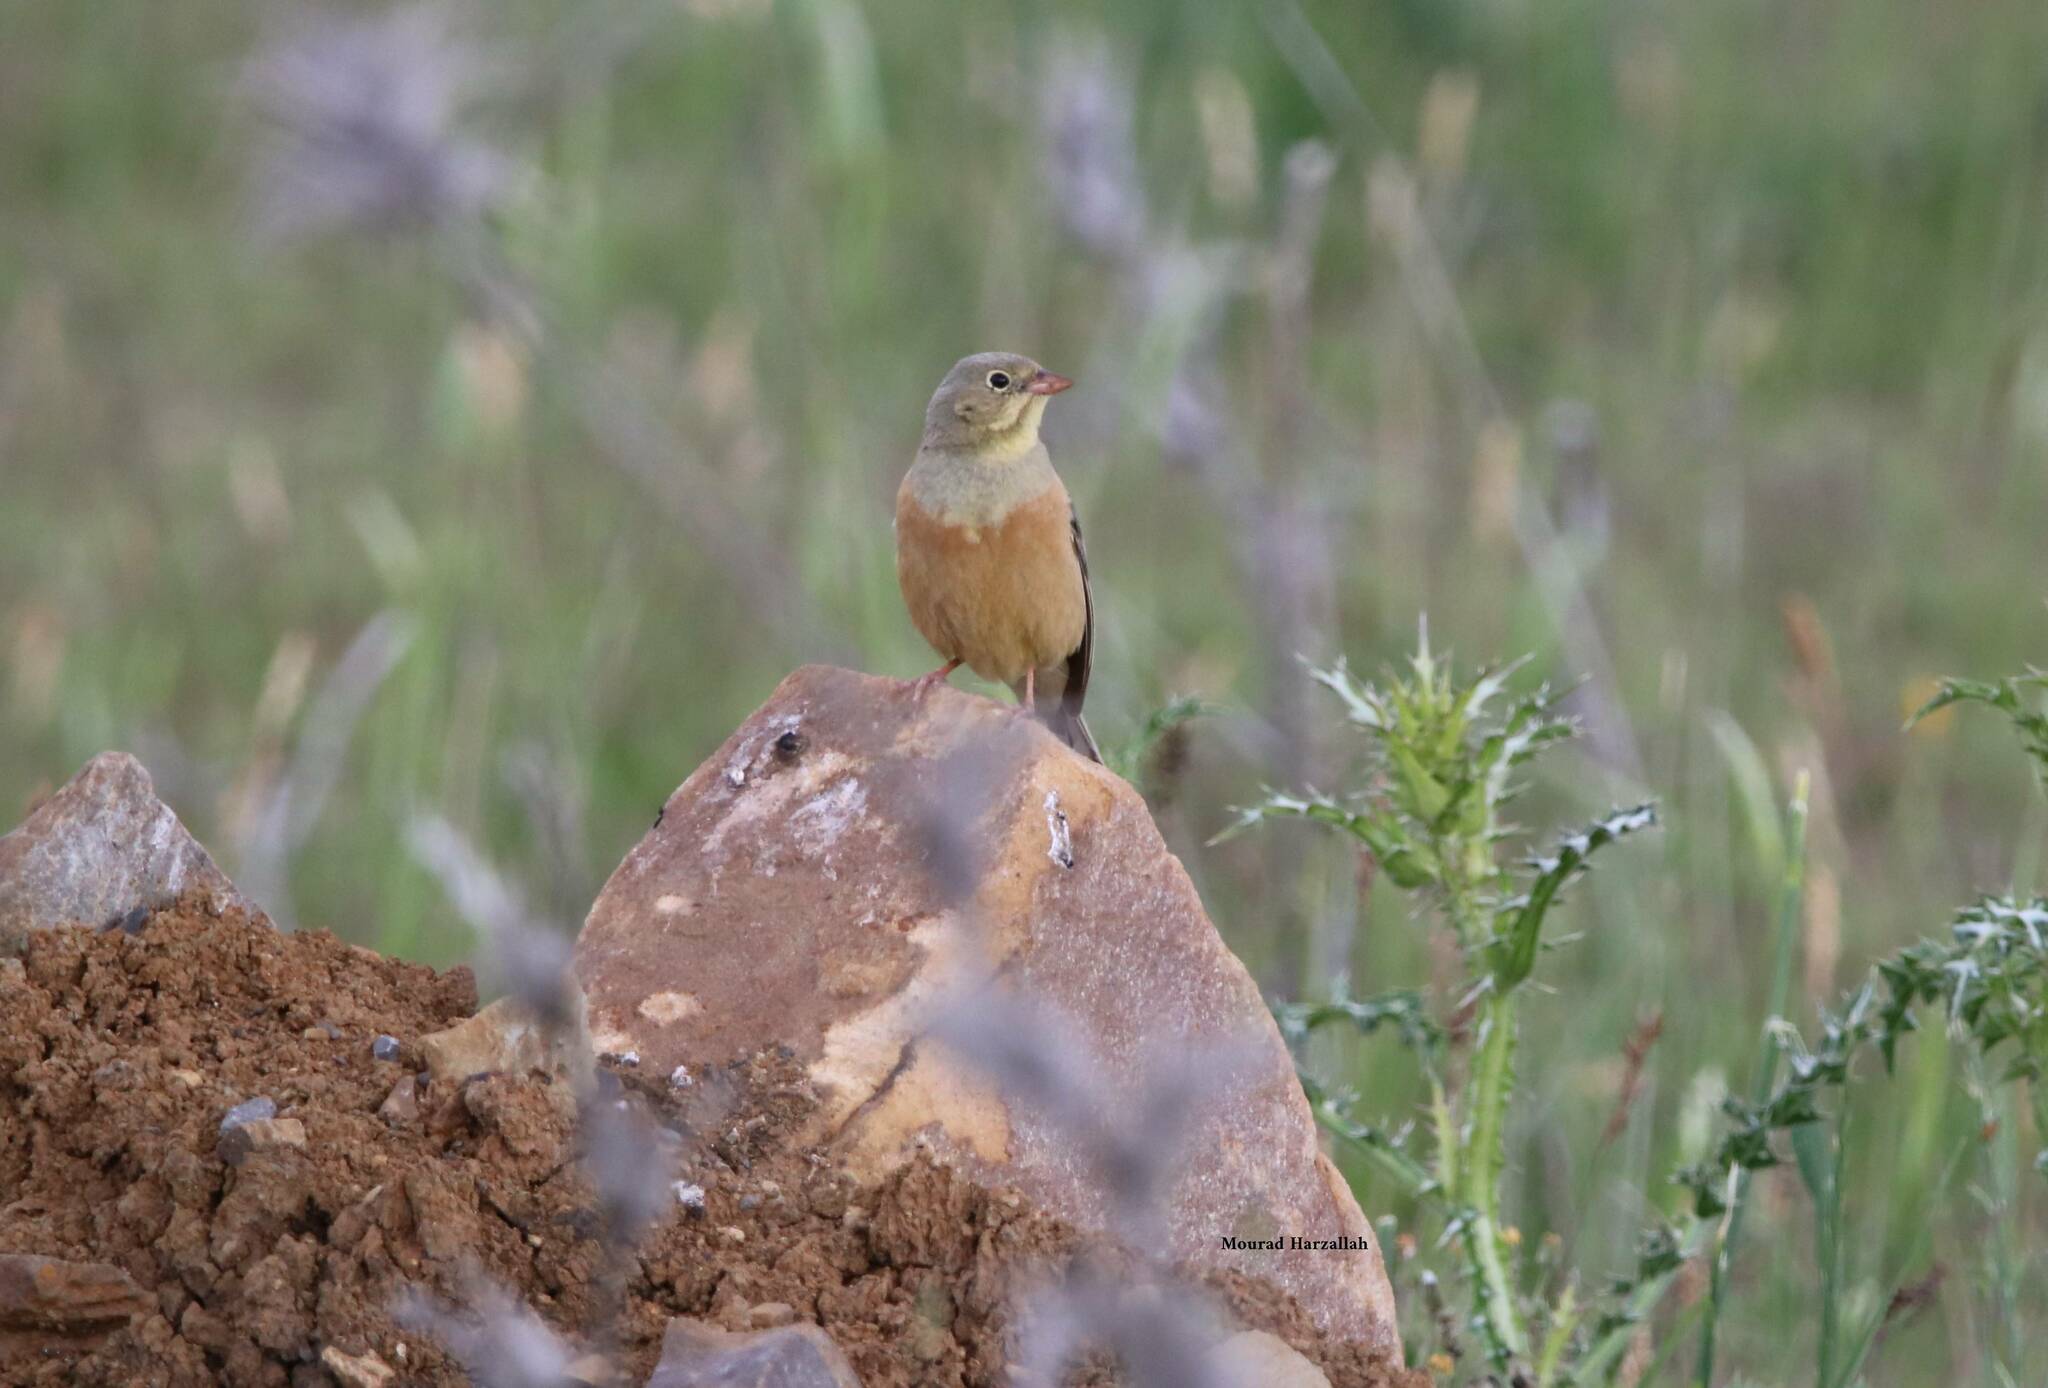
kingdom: Animalia
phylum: Chordata
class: Aves
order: Passeriformes
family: Emberizidae
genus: Emberiza
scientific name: Emberiza hortulana
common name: Ortolan bunting
